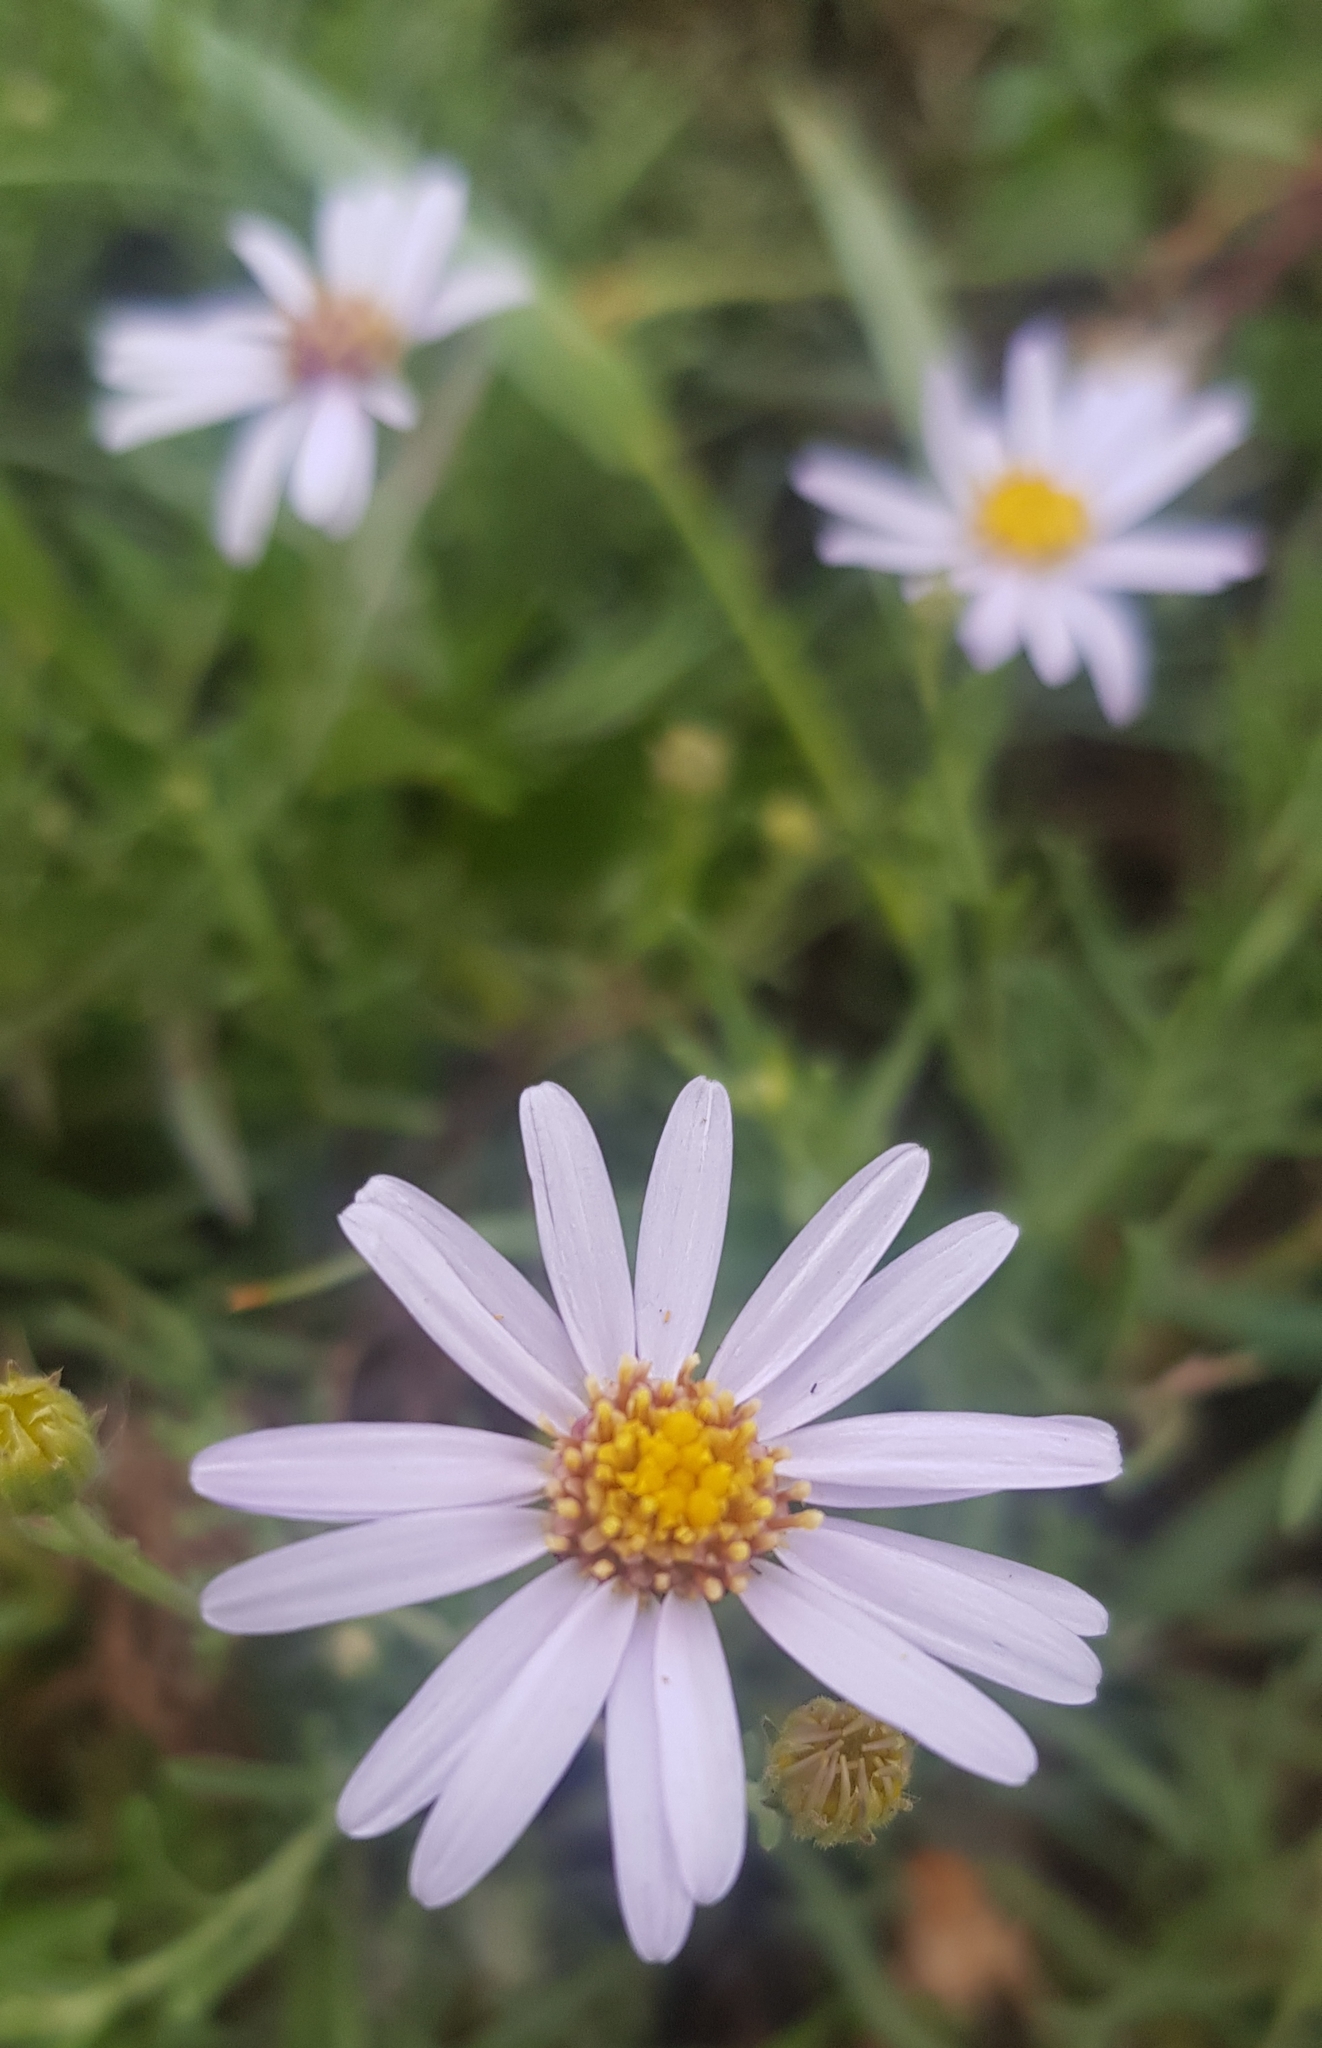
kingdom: Plantae
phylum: Tracheophyta
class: Magnoliopsida
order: Asterales
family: Asteraceae
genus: Heteropappus
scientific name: Heteropappus altaicus
